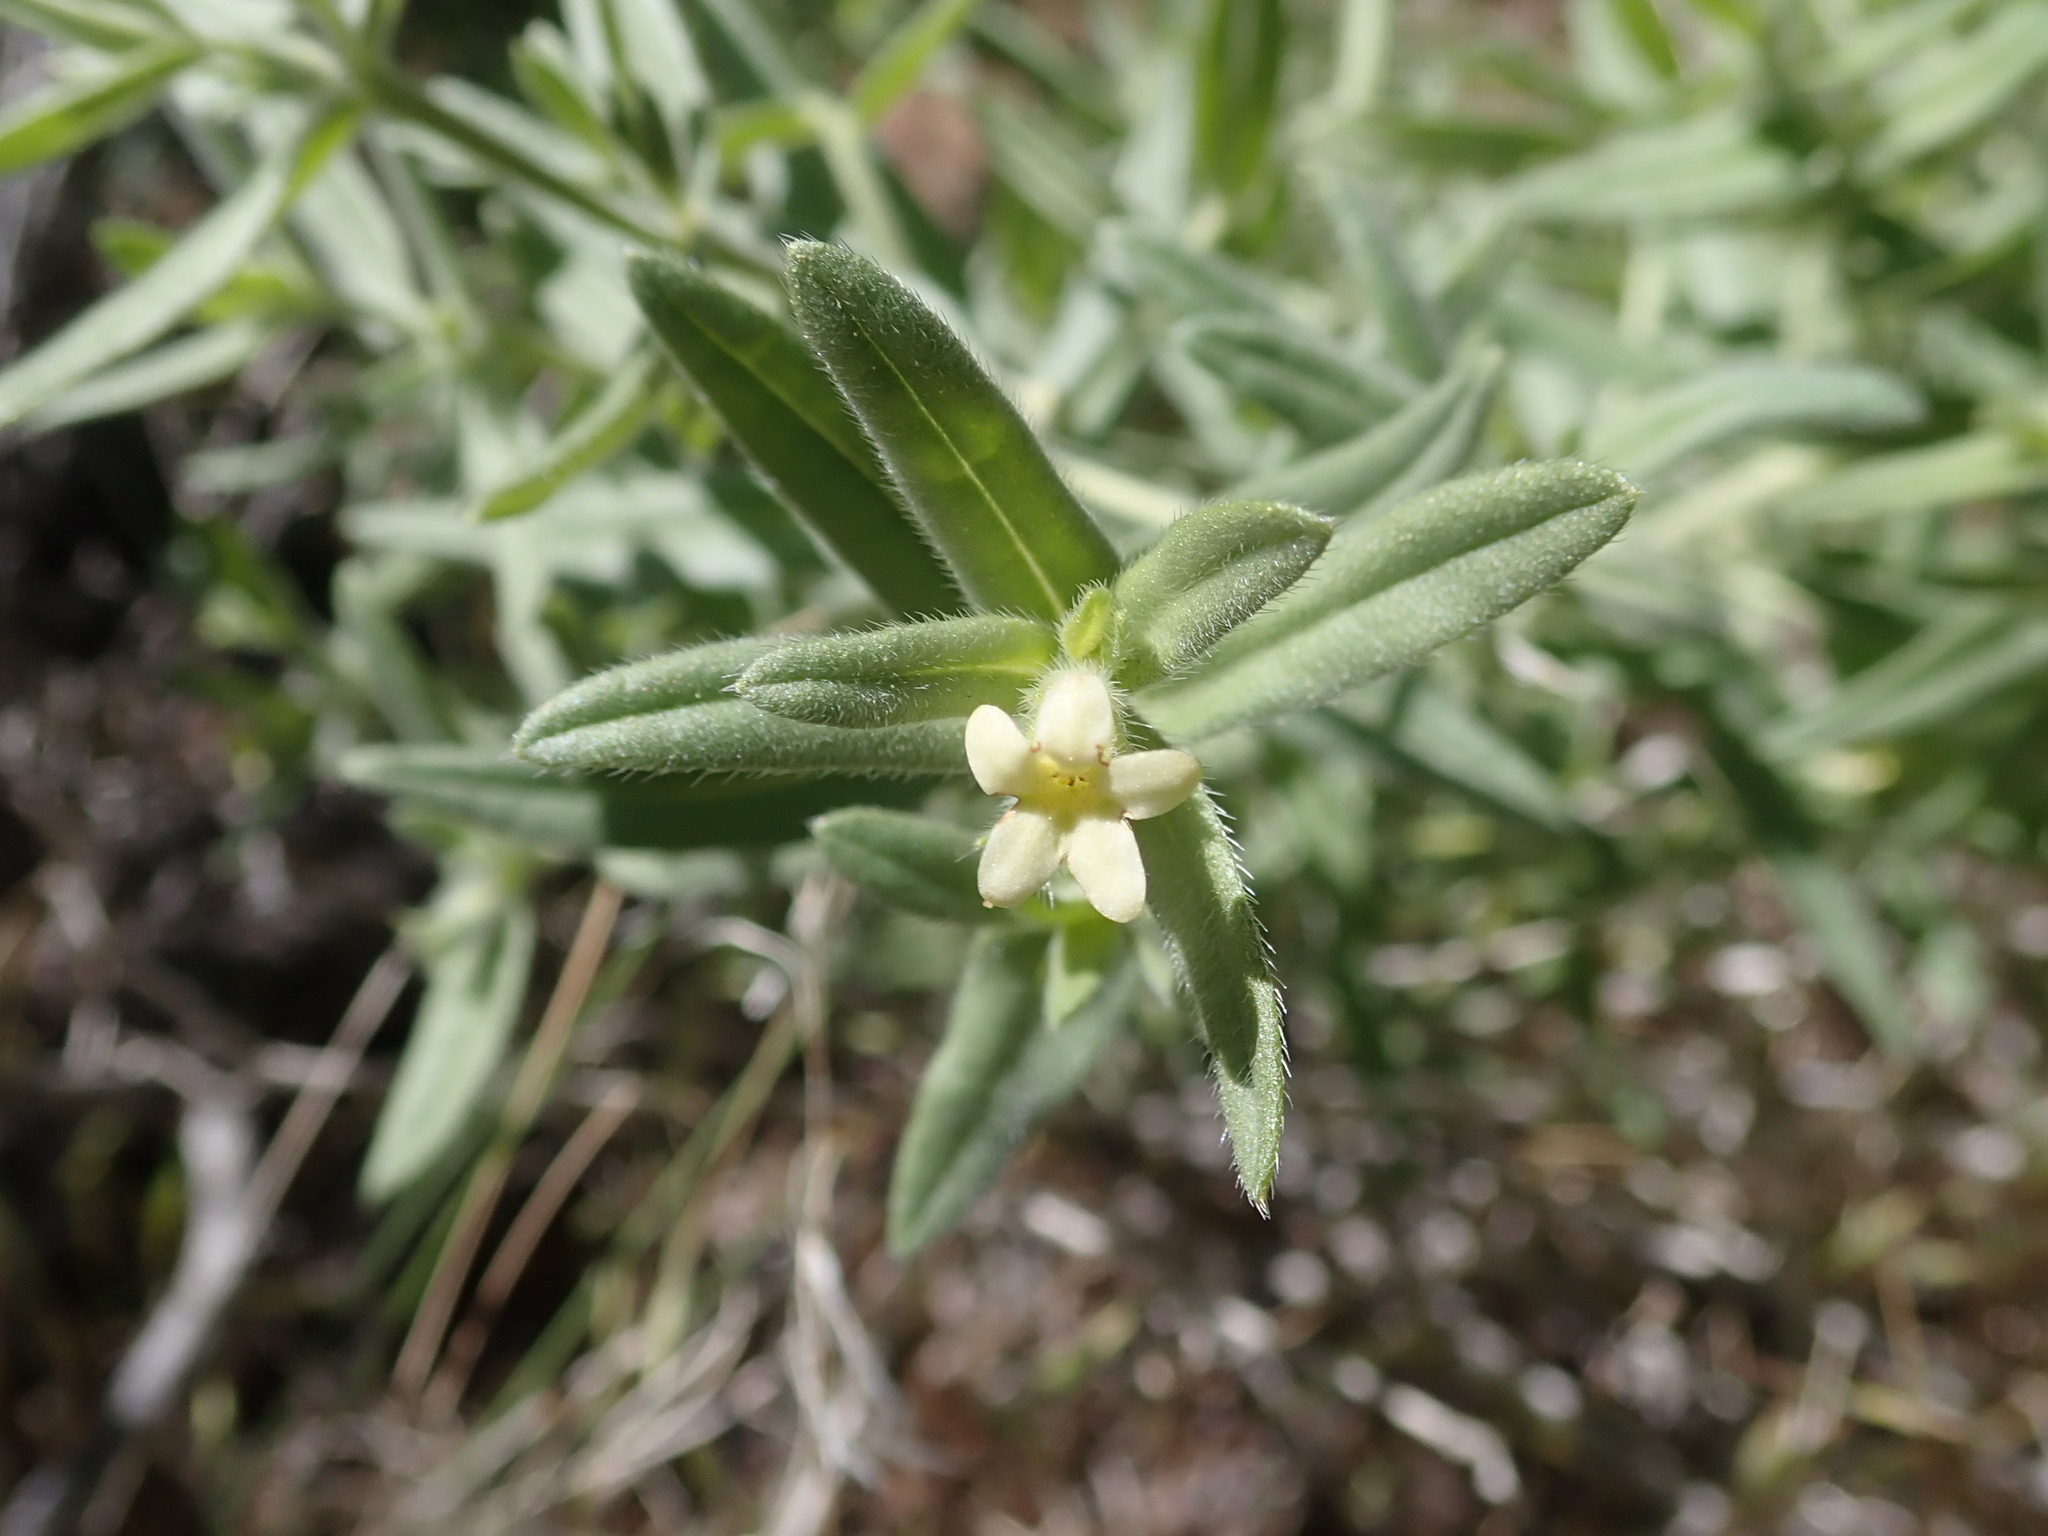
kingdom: Plantae
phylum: Tracheophyta
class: Magnoliopsida
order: Boraginales
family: Boraginaceae
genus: Lithospermum
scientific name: Lithospermum ruderale
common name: Western gromwell
